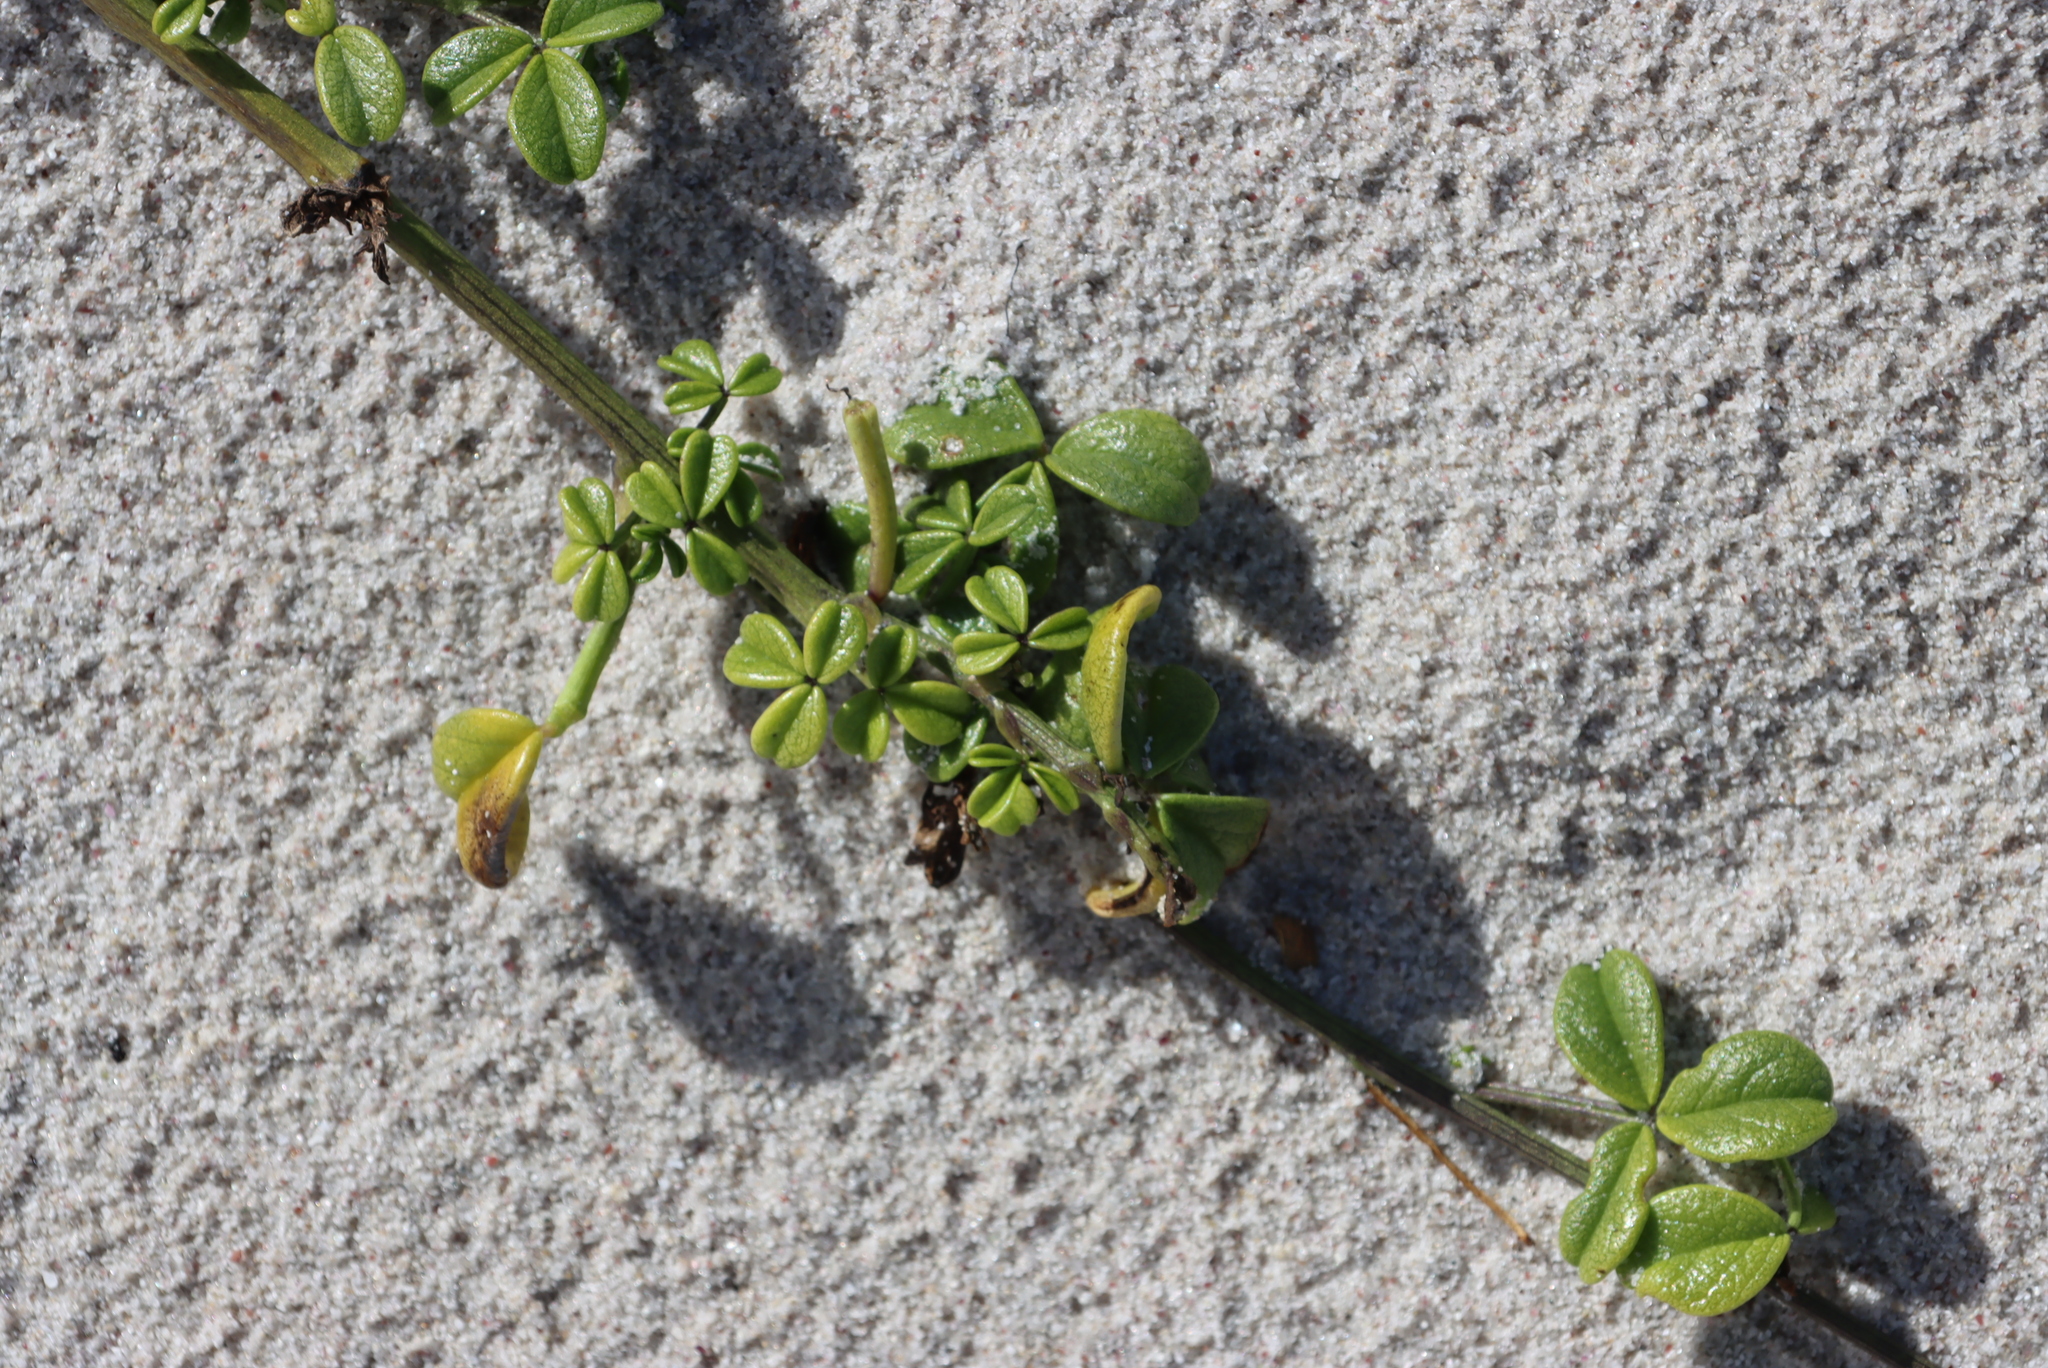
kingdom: Plantae
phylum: Tracheophyta
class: Magnoliopsida
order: Fabales
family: Fabaceae
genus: Psoralea
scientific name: Psoralea repens
